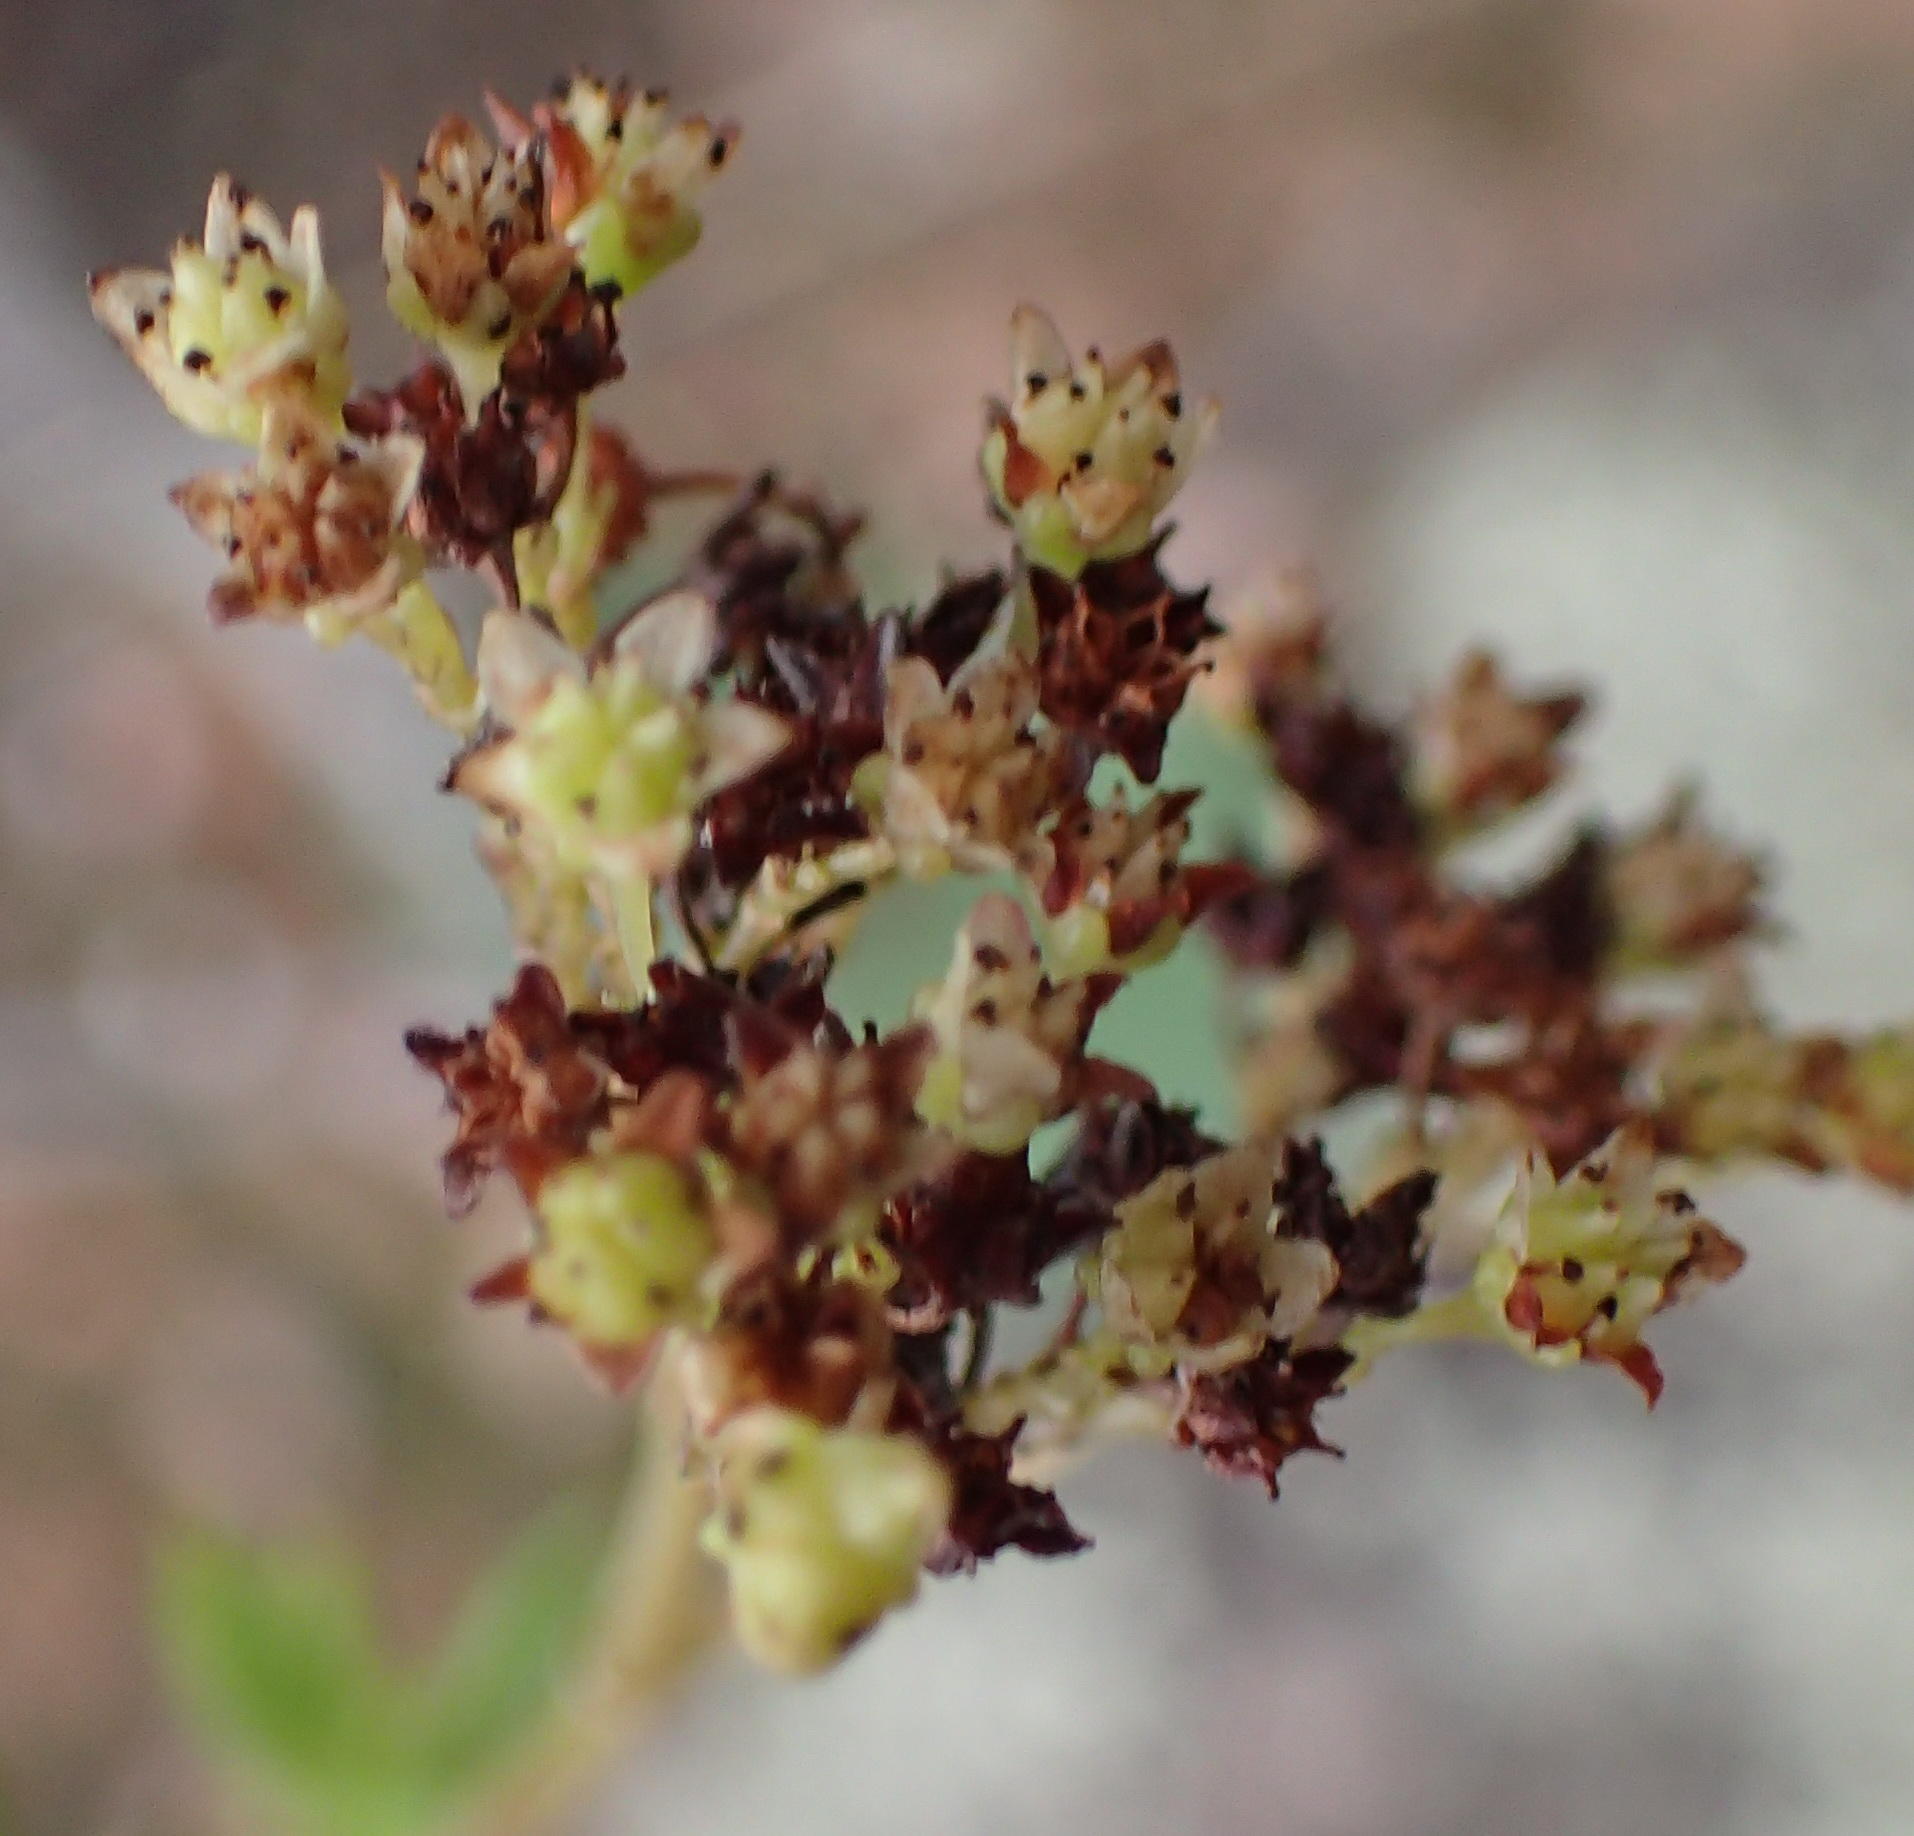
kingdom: Plantae
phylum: Tracheophyta
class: Magnoliopsida
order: Saxifragales
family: Crassulaceae
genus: Crassula
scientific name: Crassula tetragona
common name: Pygmyweed
